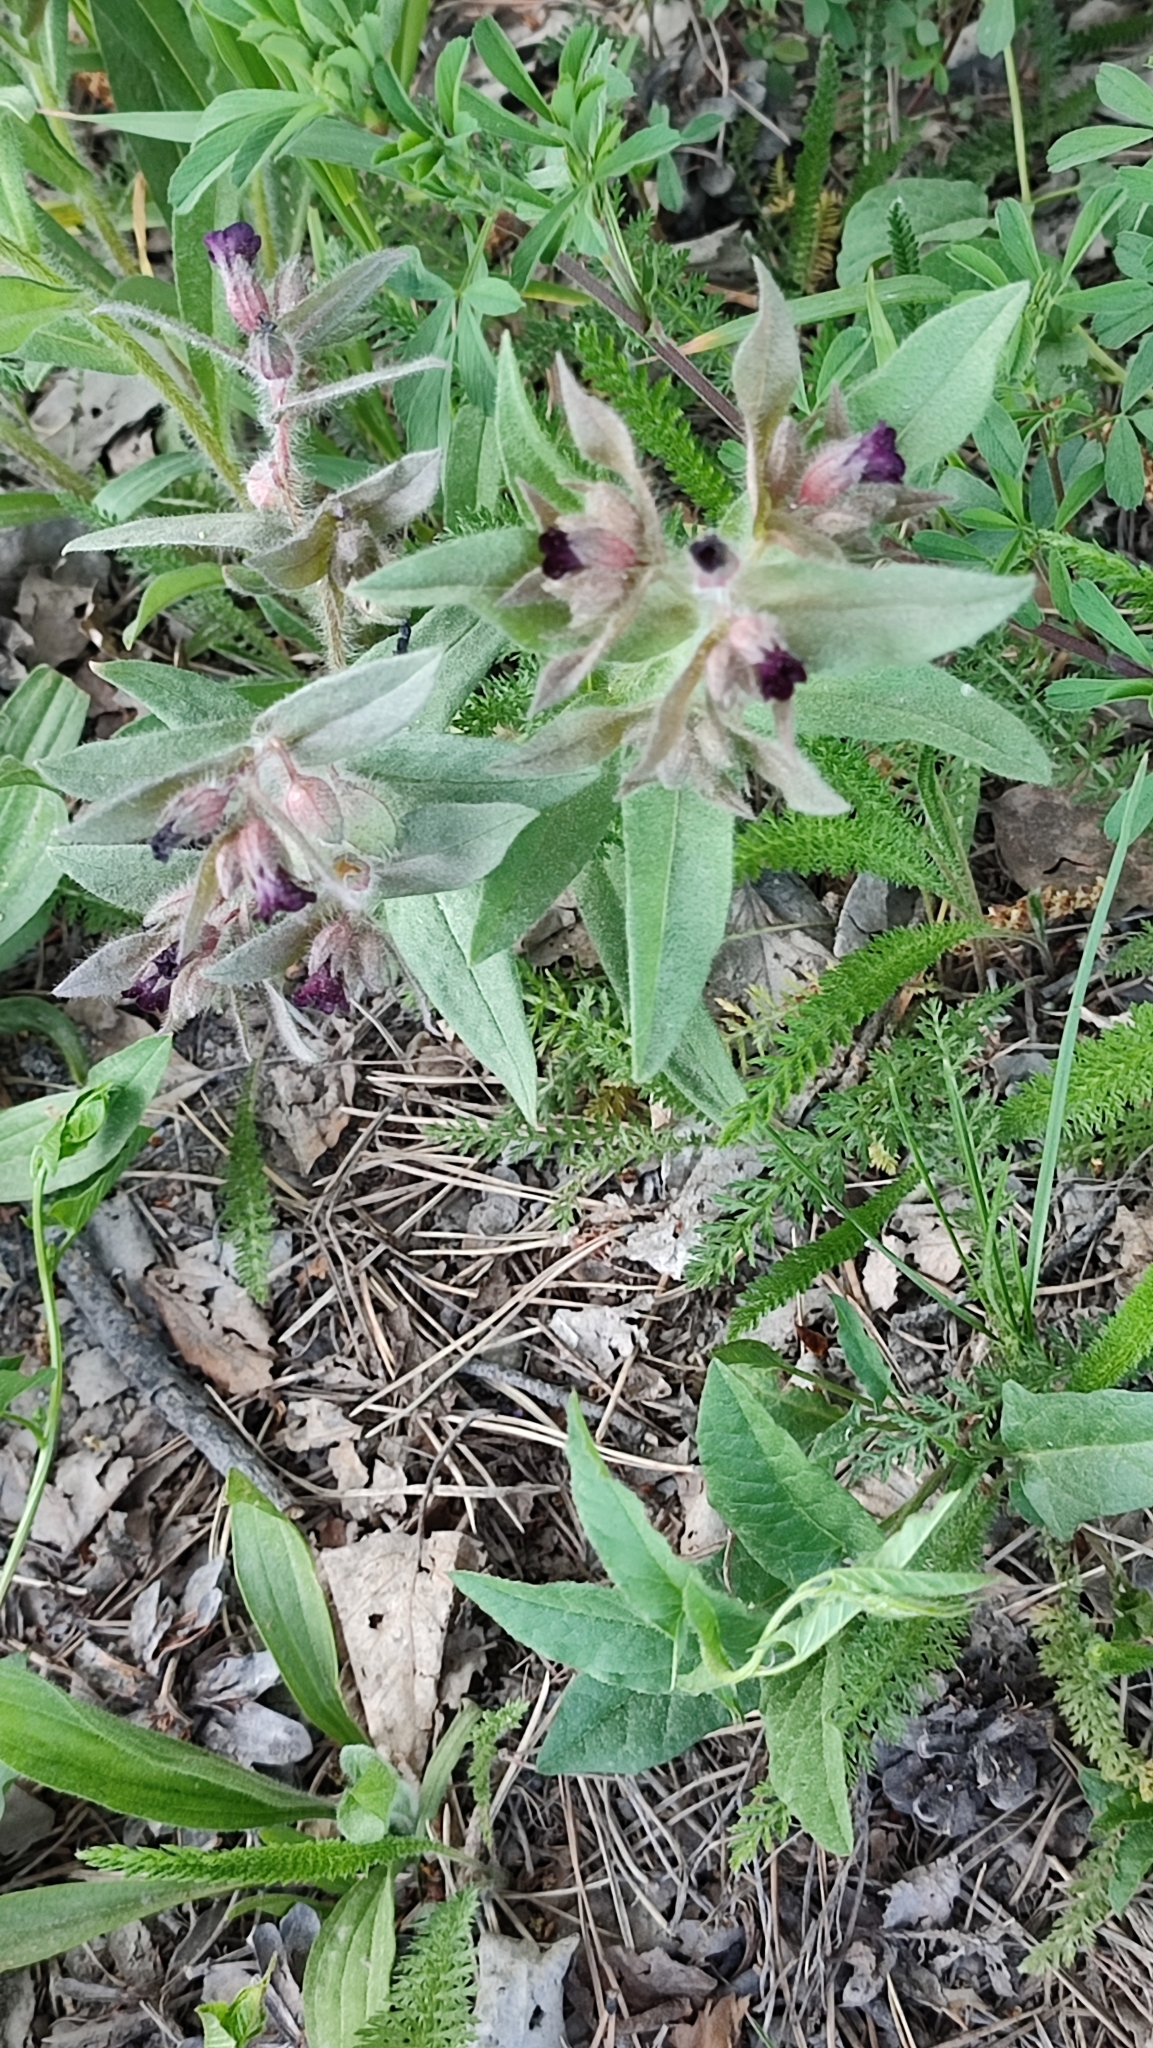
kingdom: Plantae
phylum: Tracheophyta
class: Magnoliopsida
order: Boraginales
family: Boraginaceae
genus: Nonea
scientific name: Nonea pulla
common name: Brown nonea
